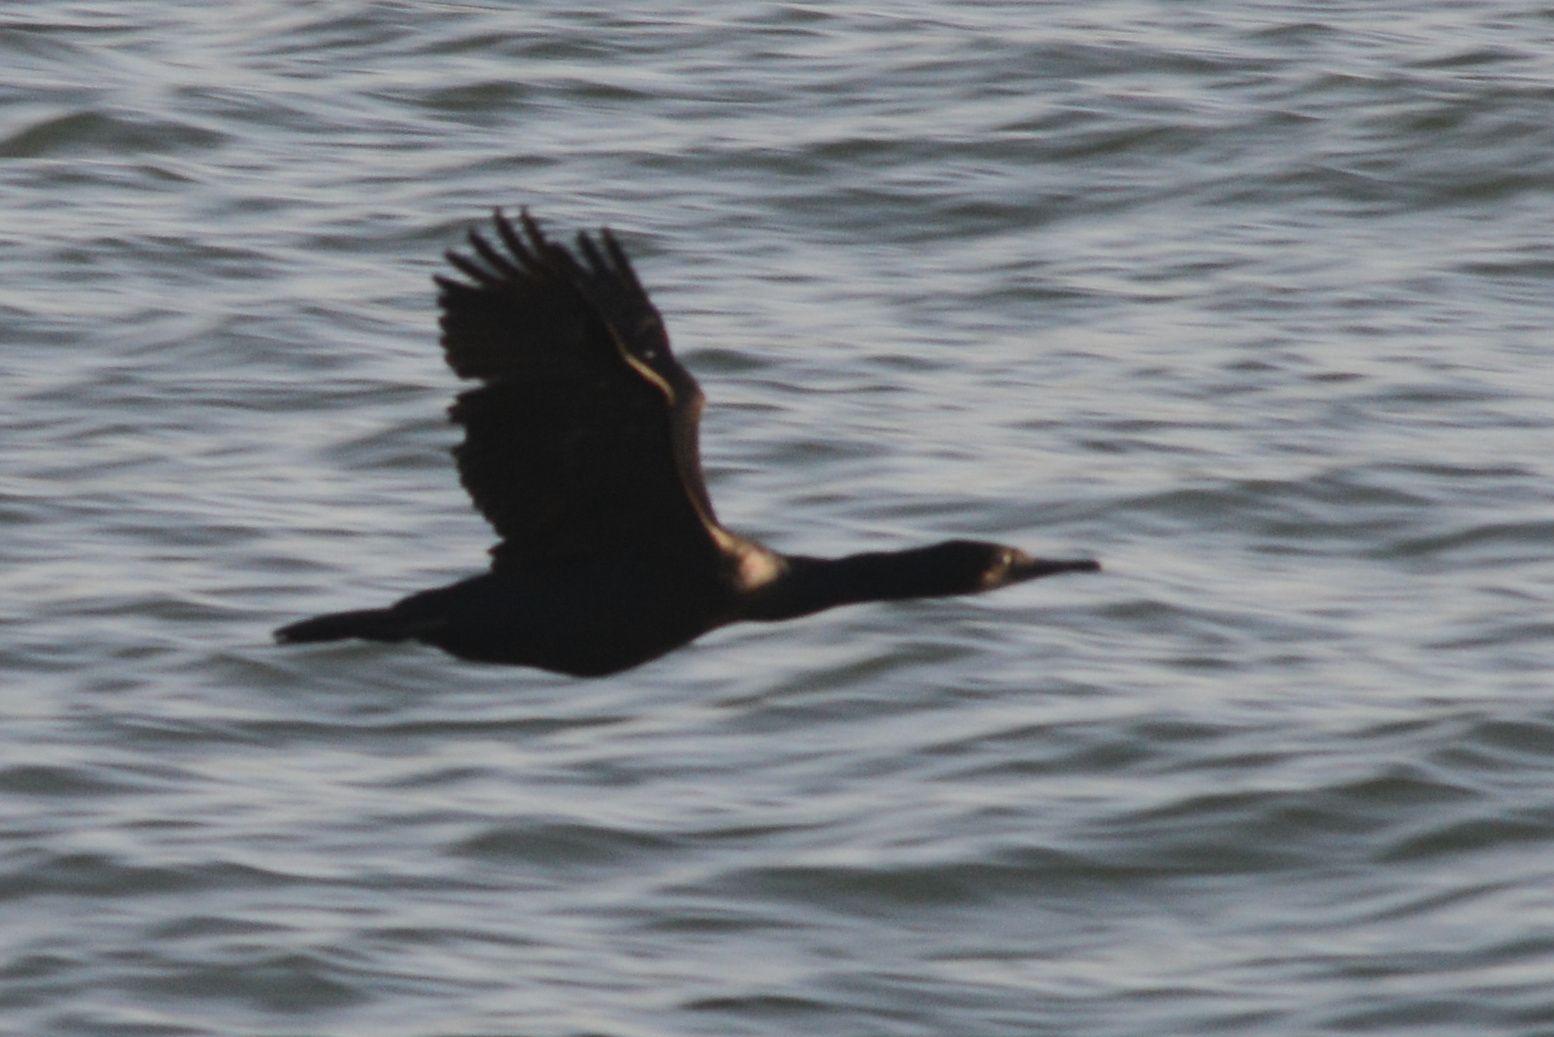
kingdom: Animalia
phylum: Chordata
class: Aves
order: Suliformes
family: Phalacrocoracidae
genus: Urile
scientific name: Urile penicillatus
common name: Brandt's cormorant
